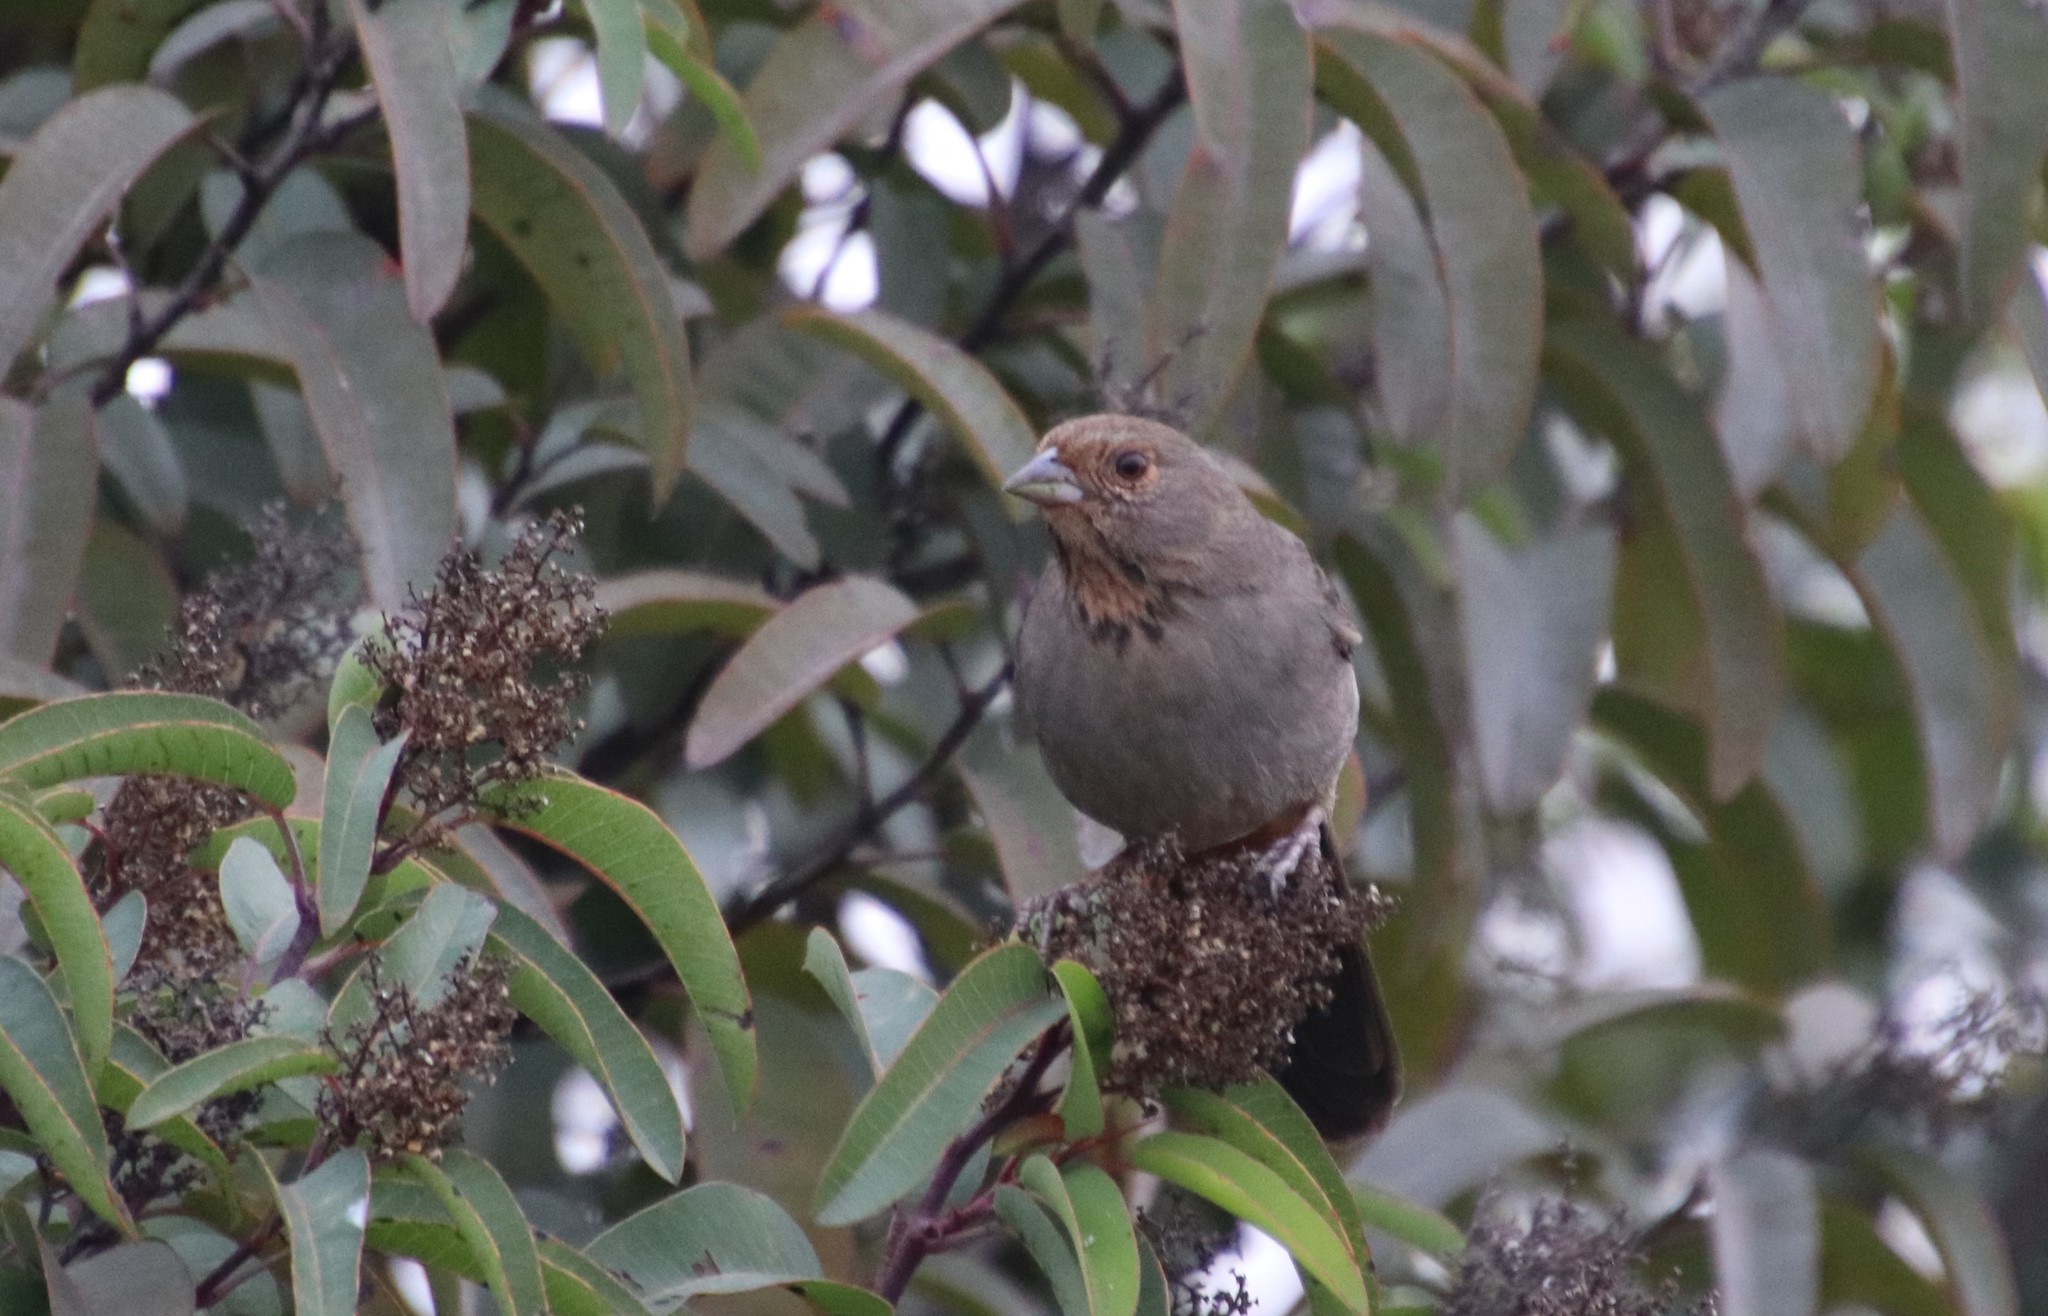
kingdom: Animalia
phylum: Chordata
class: Aves
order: Passeriformes
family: Passerellidae
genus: Melozone
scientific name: Melozone crissalis
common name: California towhee
